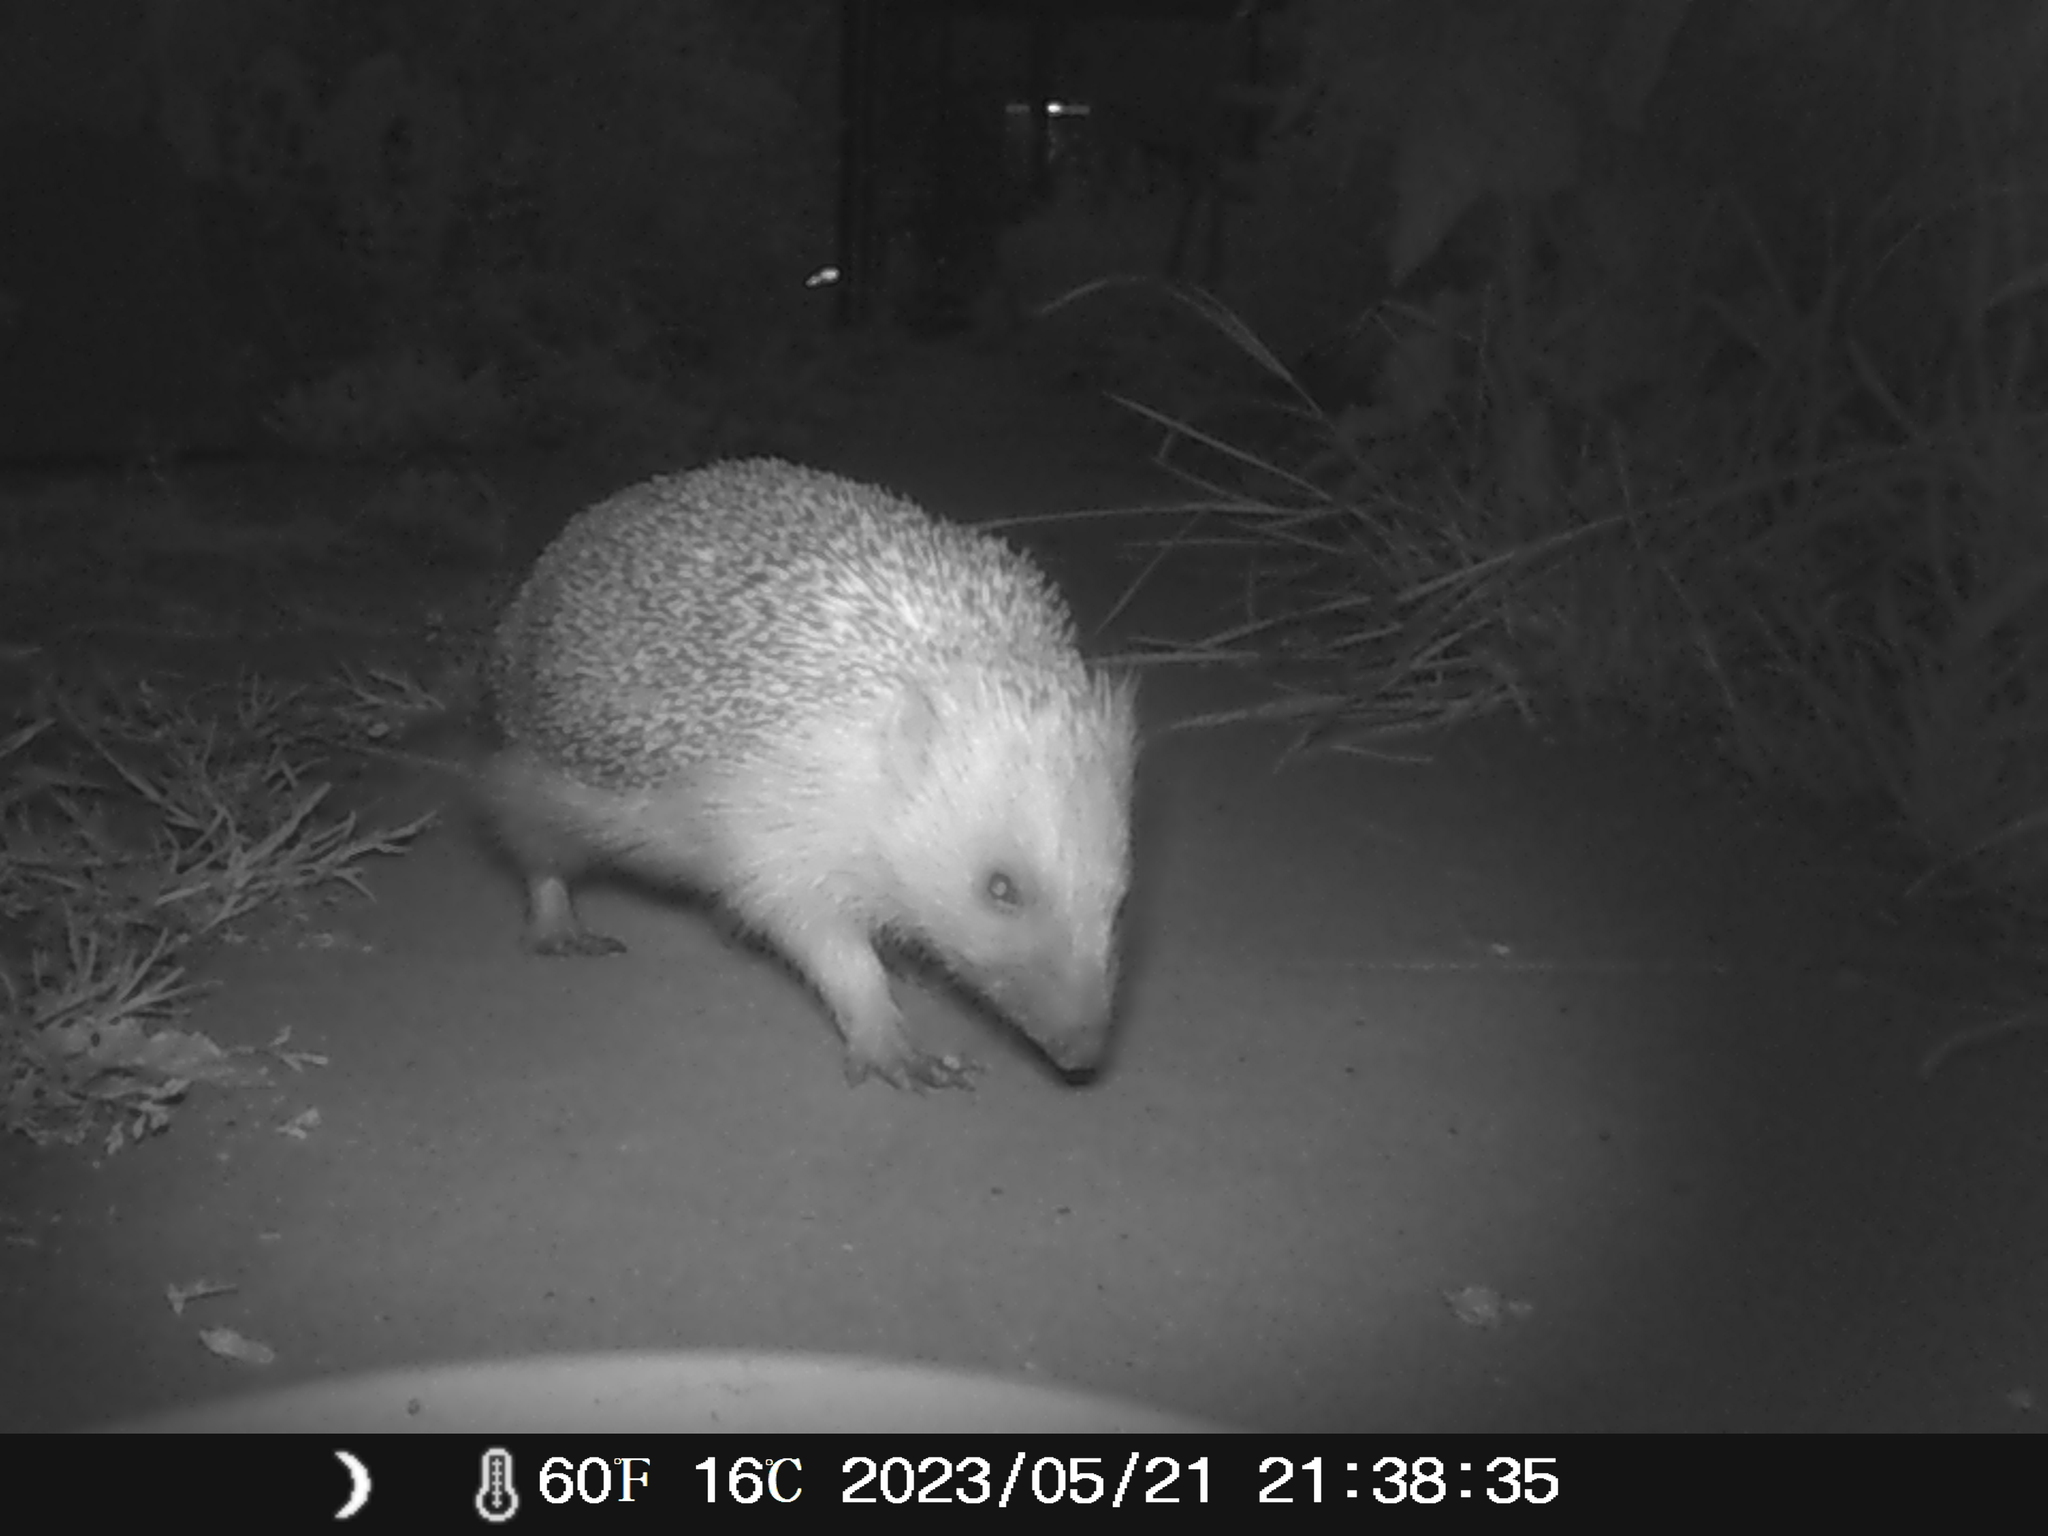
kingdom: Animalia
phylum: Chordata
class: Mammalia
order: Erinaceomorpha
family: Erinaceidae
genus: Erinaceus
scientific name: Erinaceus europaeus
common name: West european hedgehog
